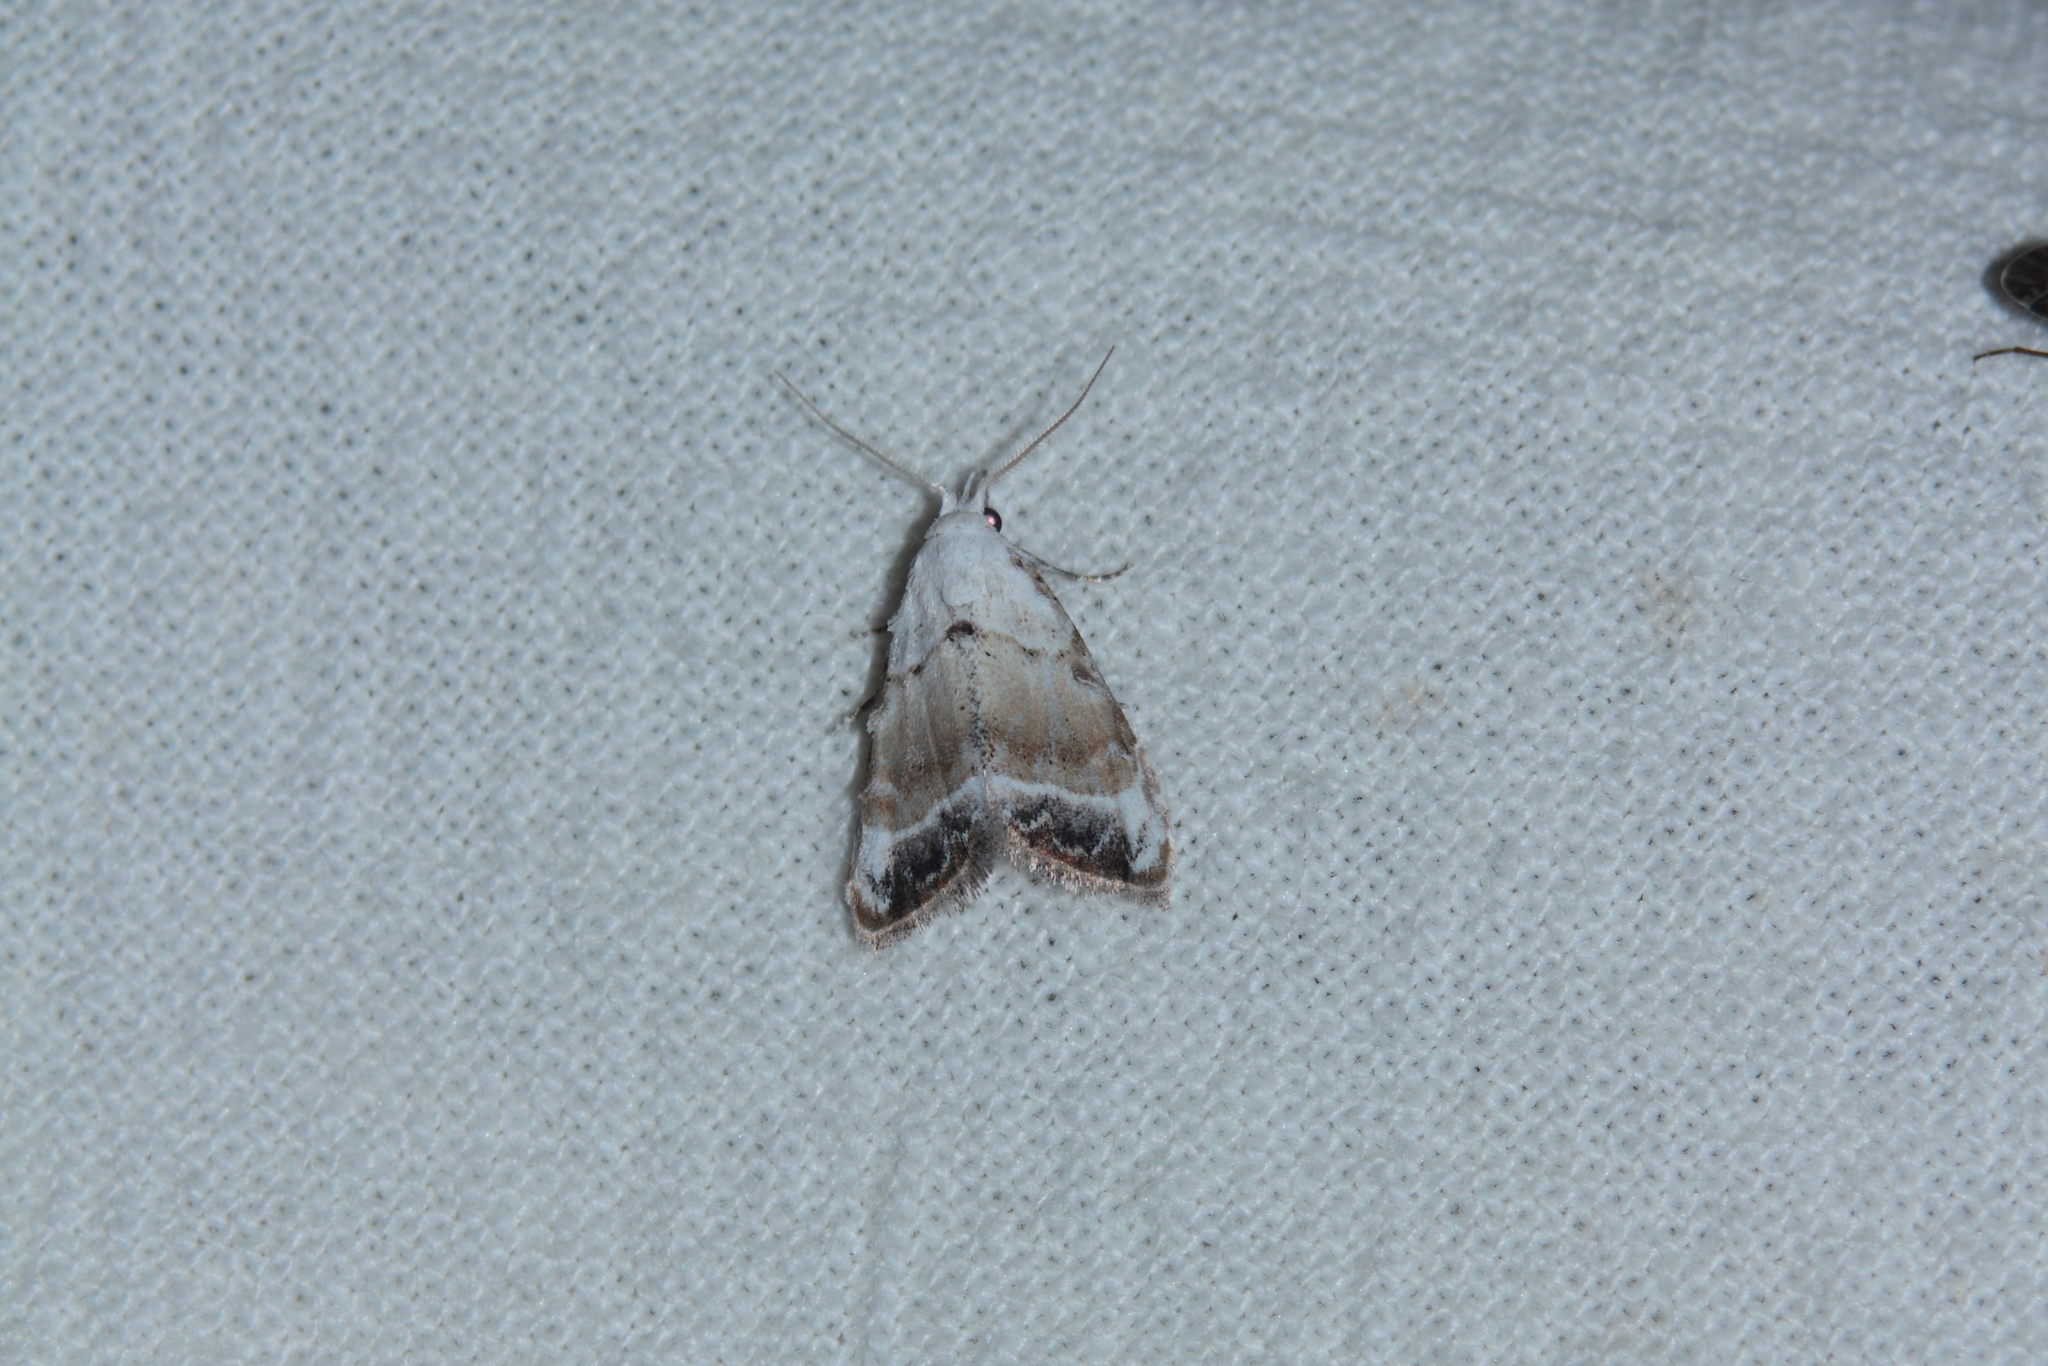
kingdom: Animalia
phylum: Arthropoda
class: Insecta
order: Lepidoptera
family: Nolidae
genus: Nola
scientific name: Nola chlamitulalis
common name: Jersey black arches
